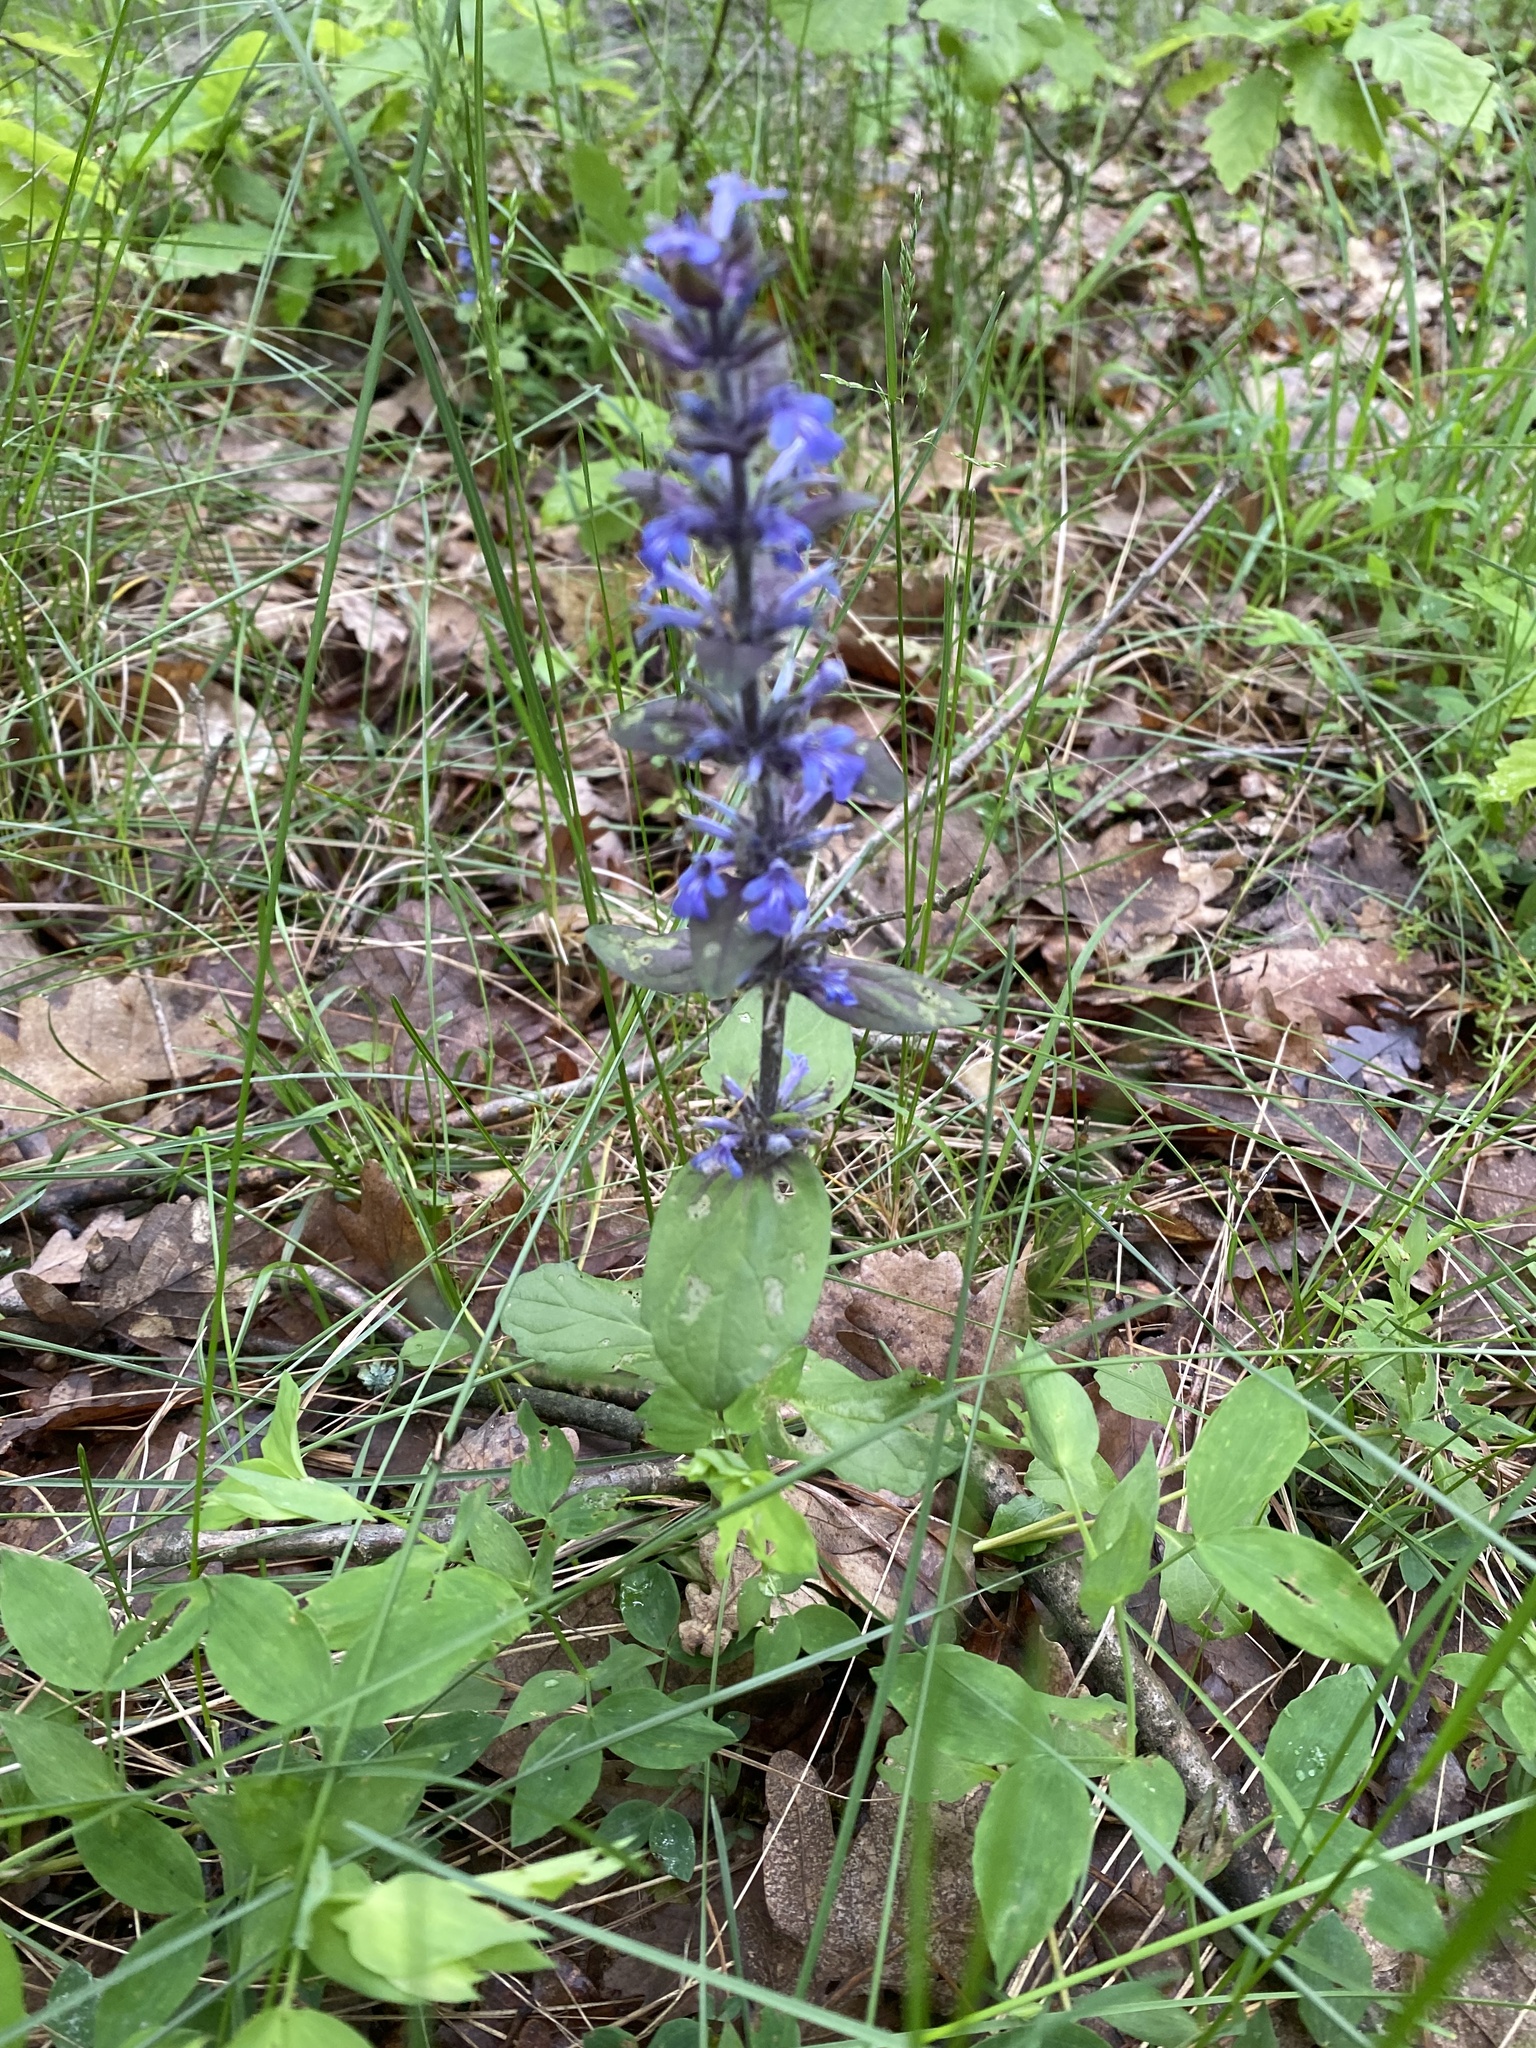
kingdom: Plantae
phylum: Tracheophyta
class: Magnoliopsida
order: Lamiales
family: Lamiaceae
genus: Ajuga
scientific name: Ajuga reptans
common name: Bugle
